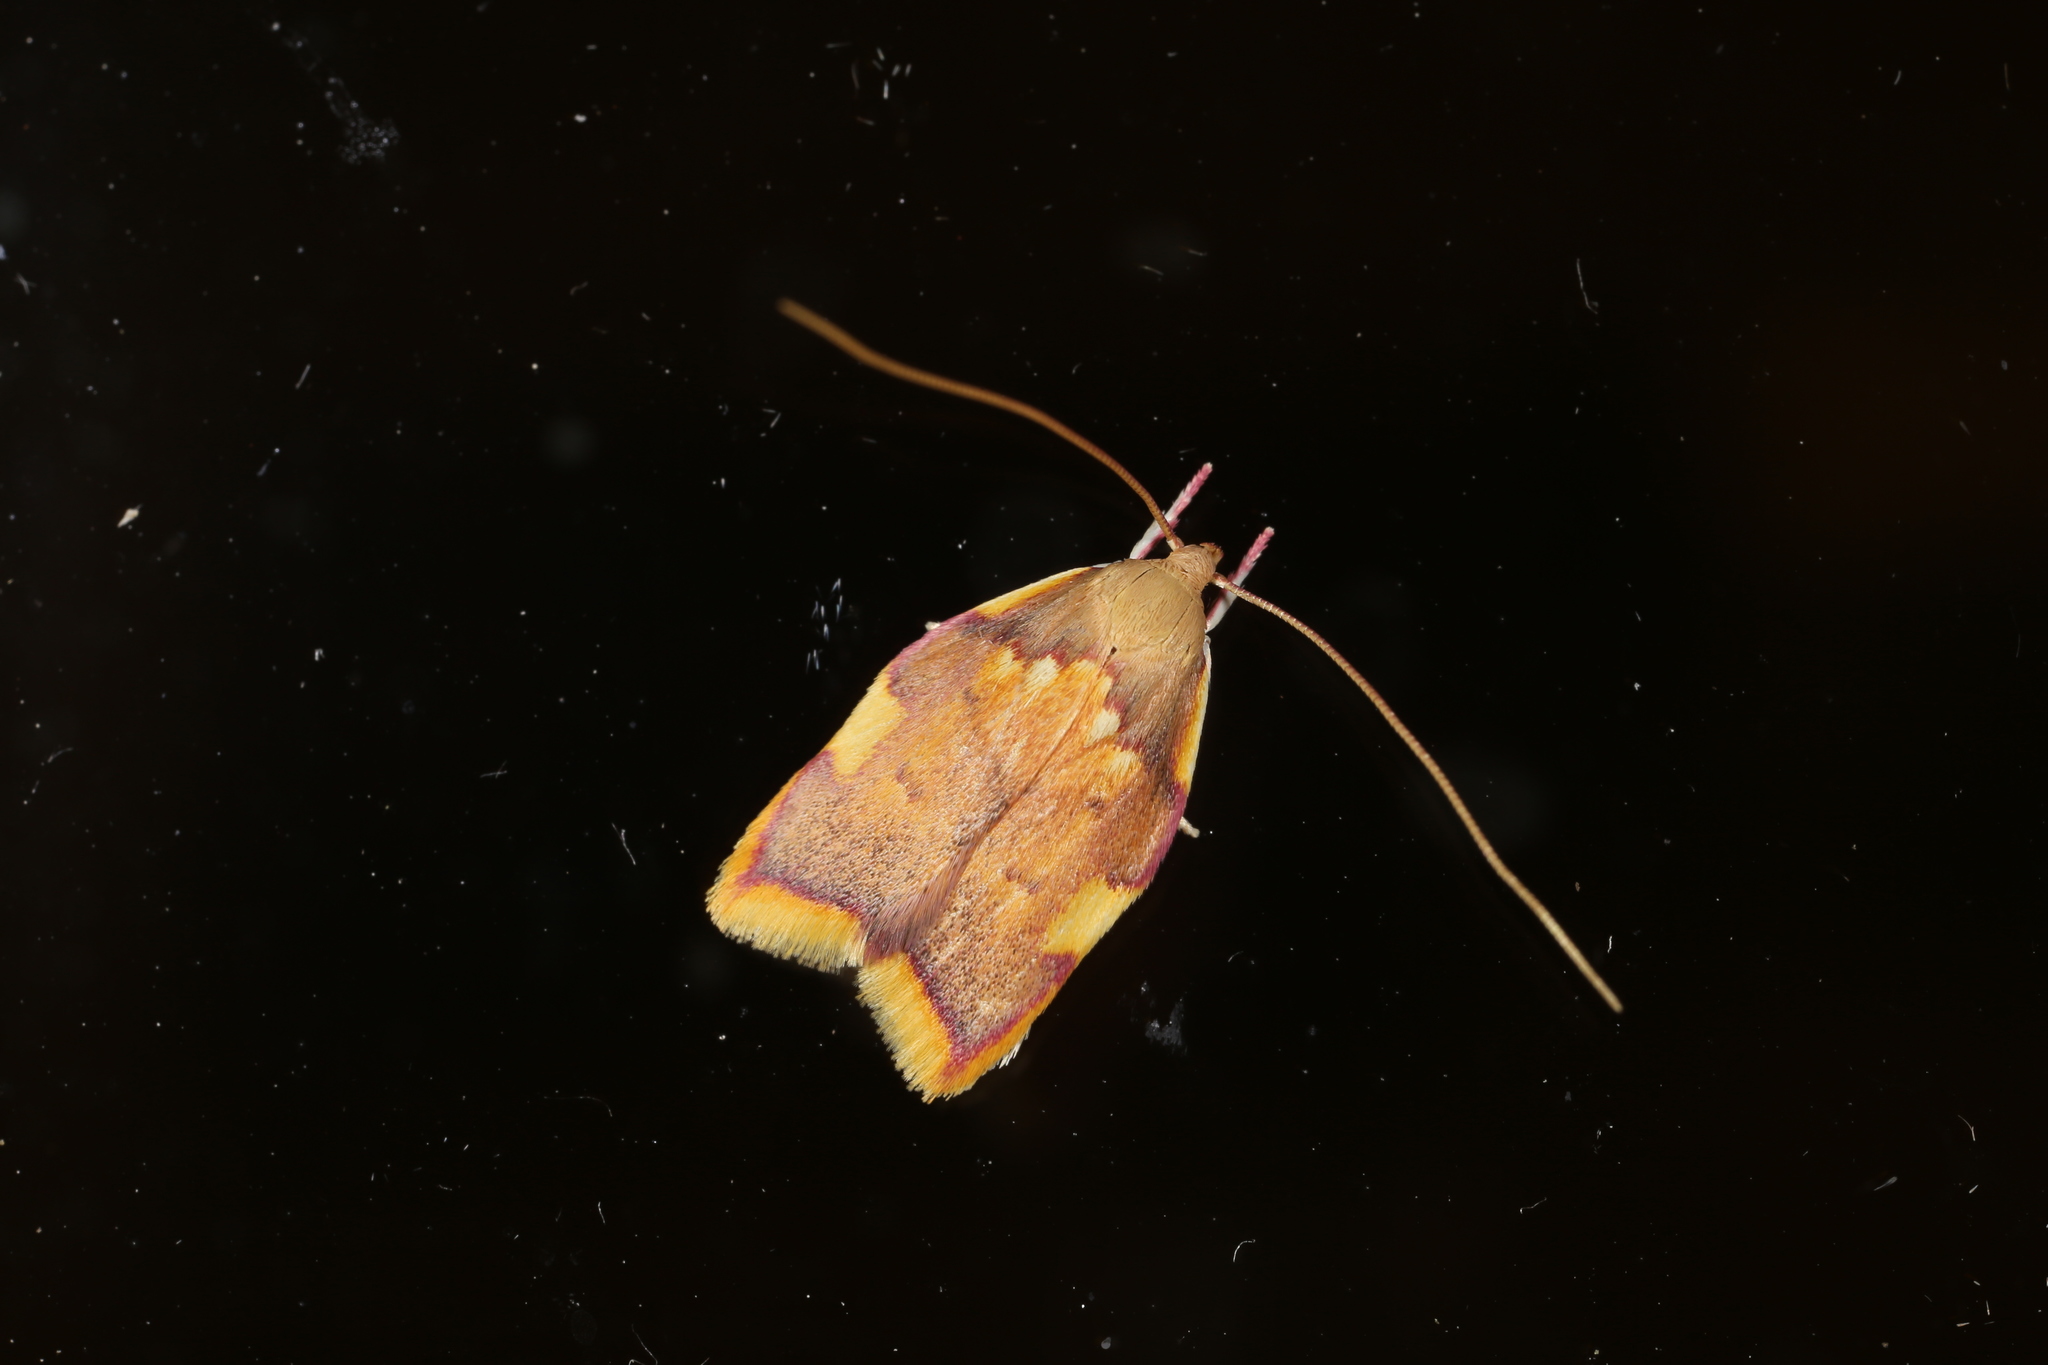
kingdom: Animalia
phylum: Arthropoda
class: Insecta
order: Lepidoptera
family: Peleopodidae
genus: Carcina
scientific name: Carcina quercana
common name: Moth
